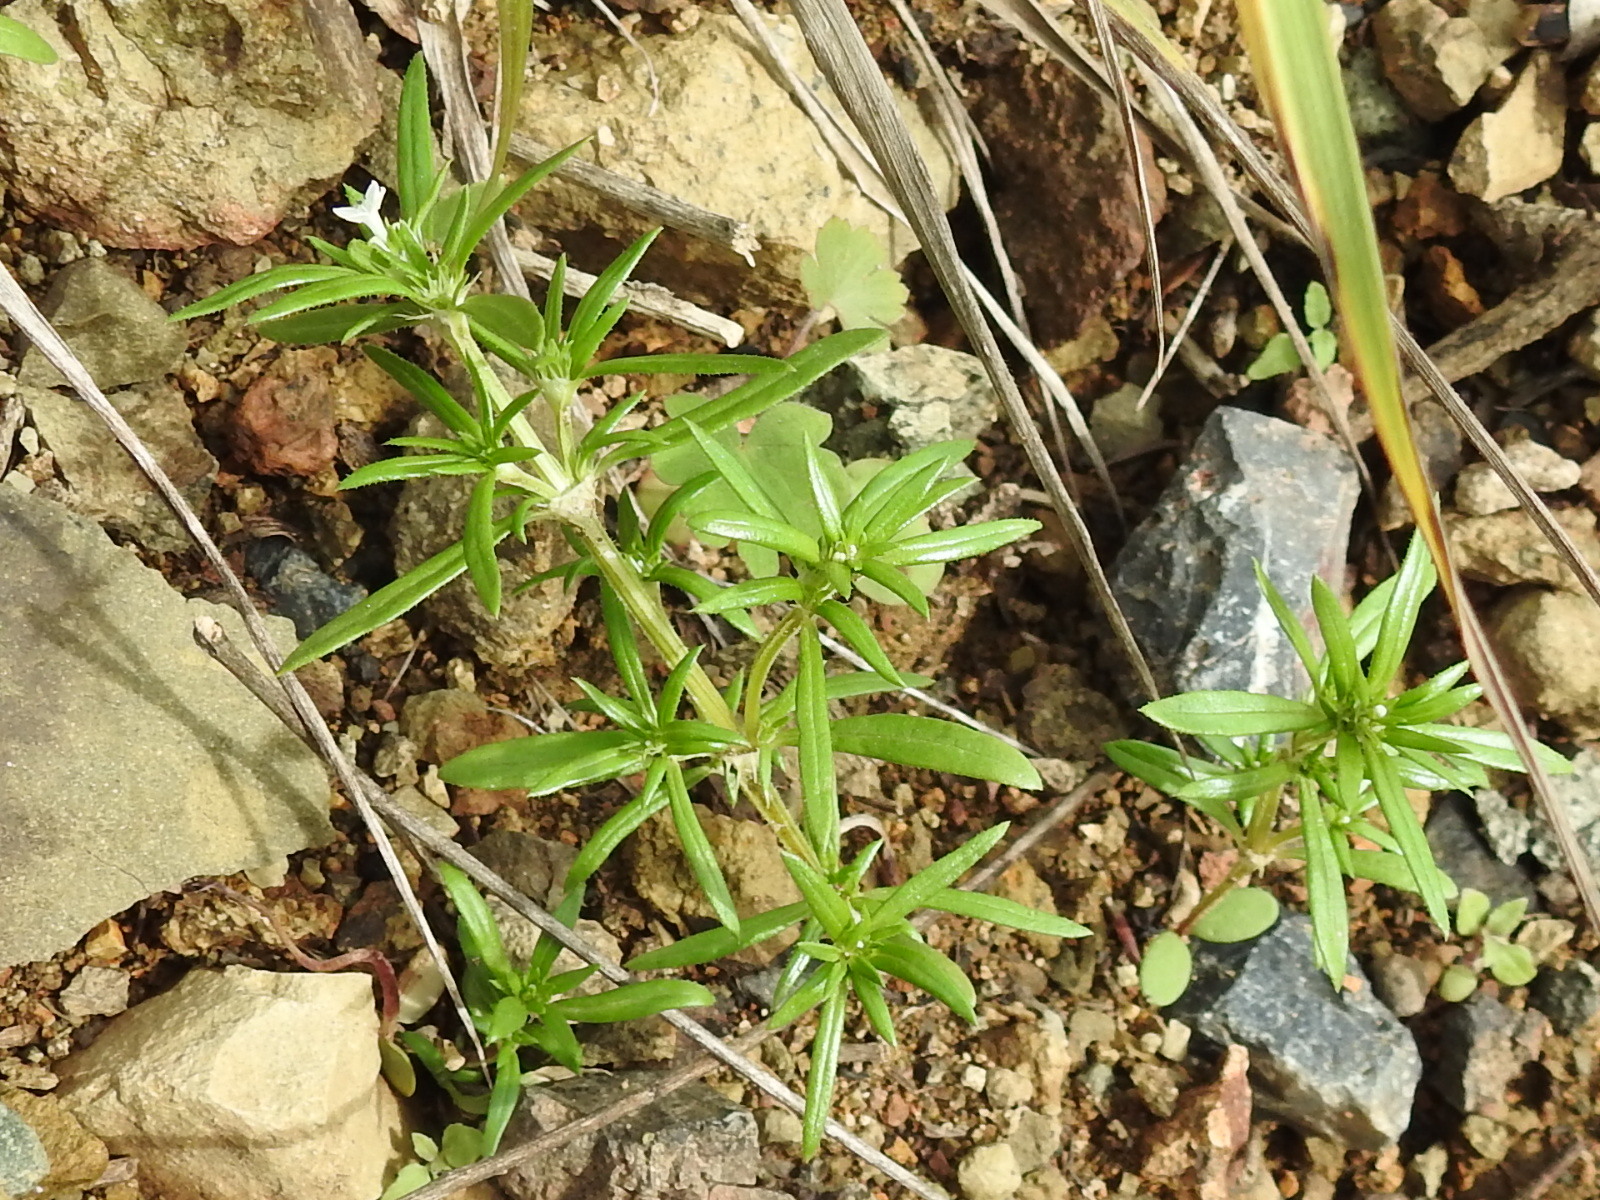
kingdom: Plantae
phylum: Tracheophyta
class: Magnoliopsida
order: Gentianales
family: Rubiaceae
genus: Crusea
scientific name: Crusea simplex
